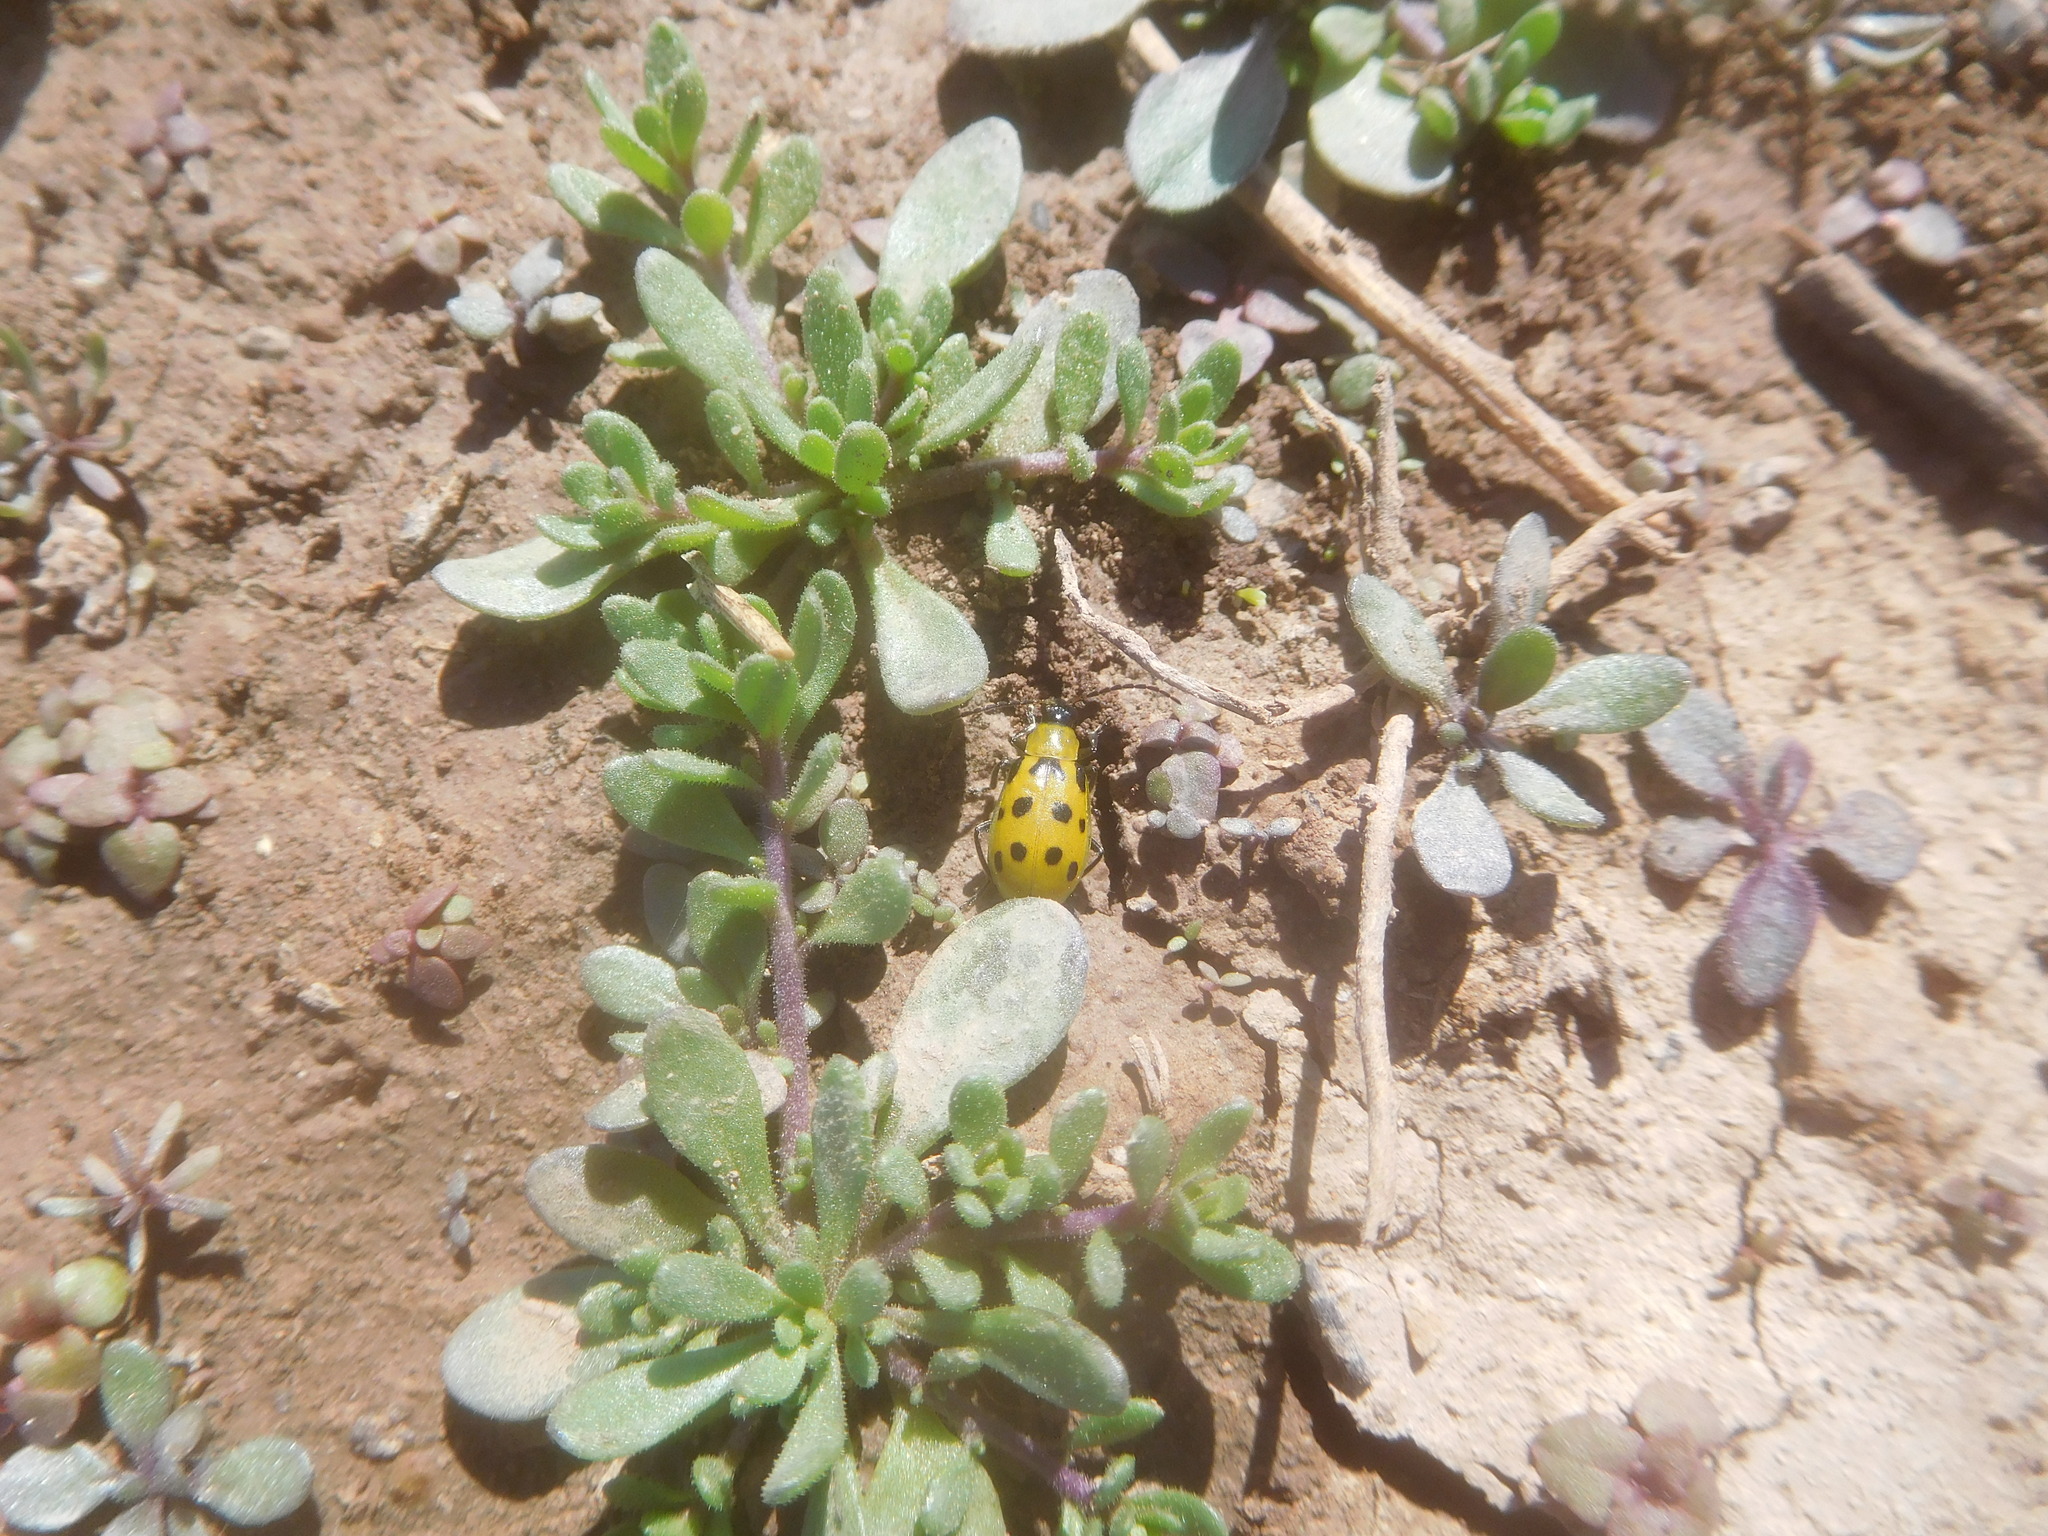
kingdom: Animalia
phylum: Arthropoda
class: Insecta
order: Coleoptera
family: Chrysomelidae
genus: Diabrotica
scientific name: Diabrotica undecimpunctata
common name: Spotted cucumber beetle
